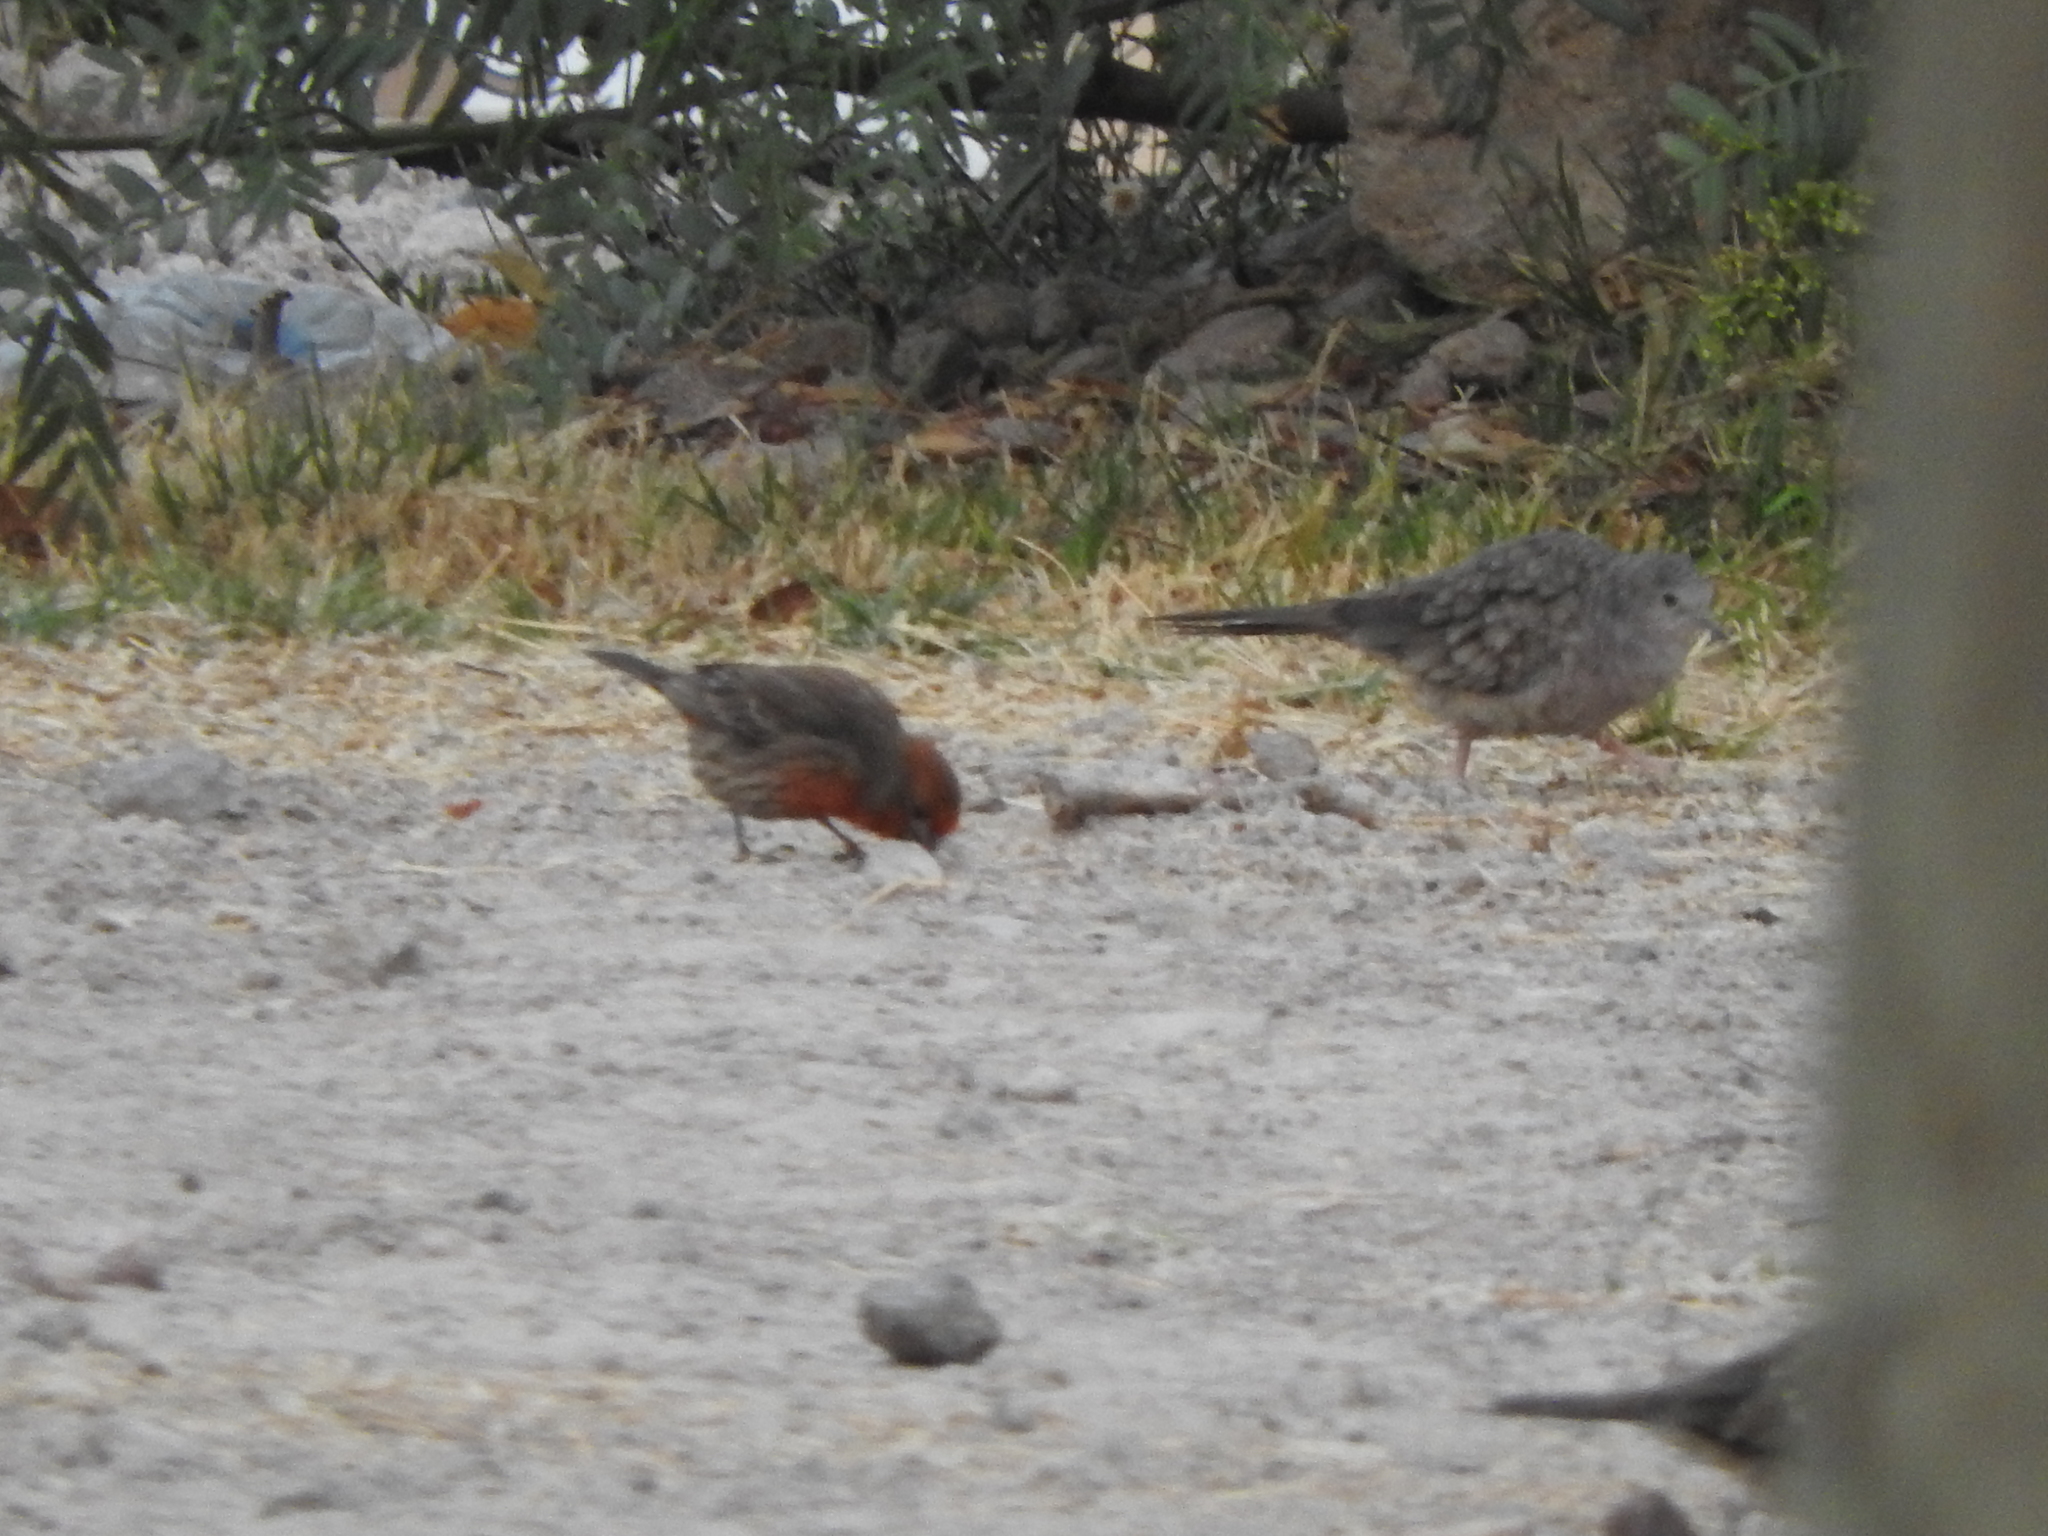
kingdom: Animalia
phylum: Chordata
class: Aves
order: Passeriformes
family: Fringillidae
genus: Haemorhous
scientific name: Haemorhous mexicanus
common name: House finch
